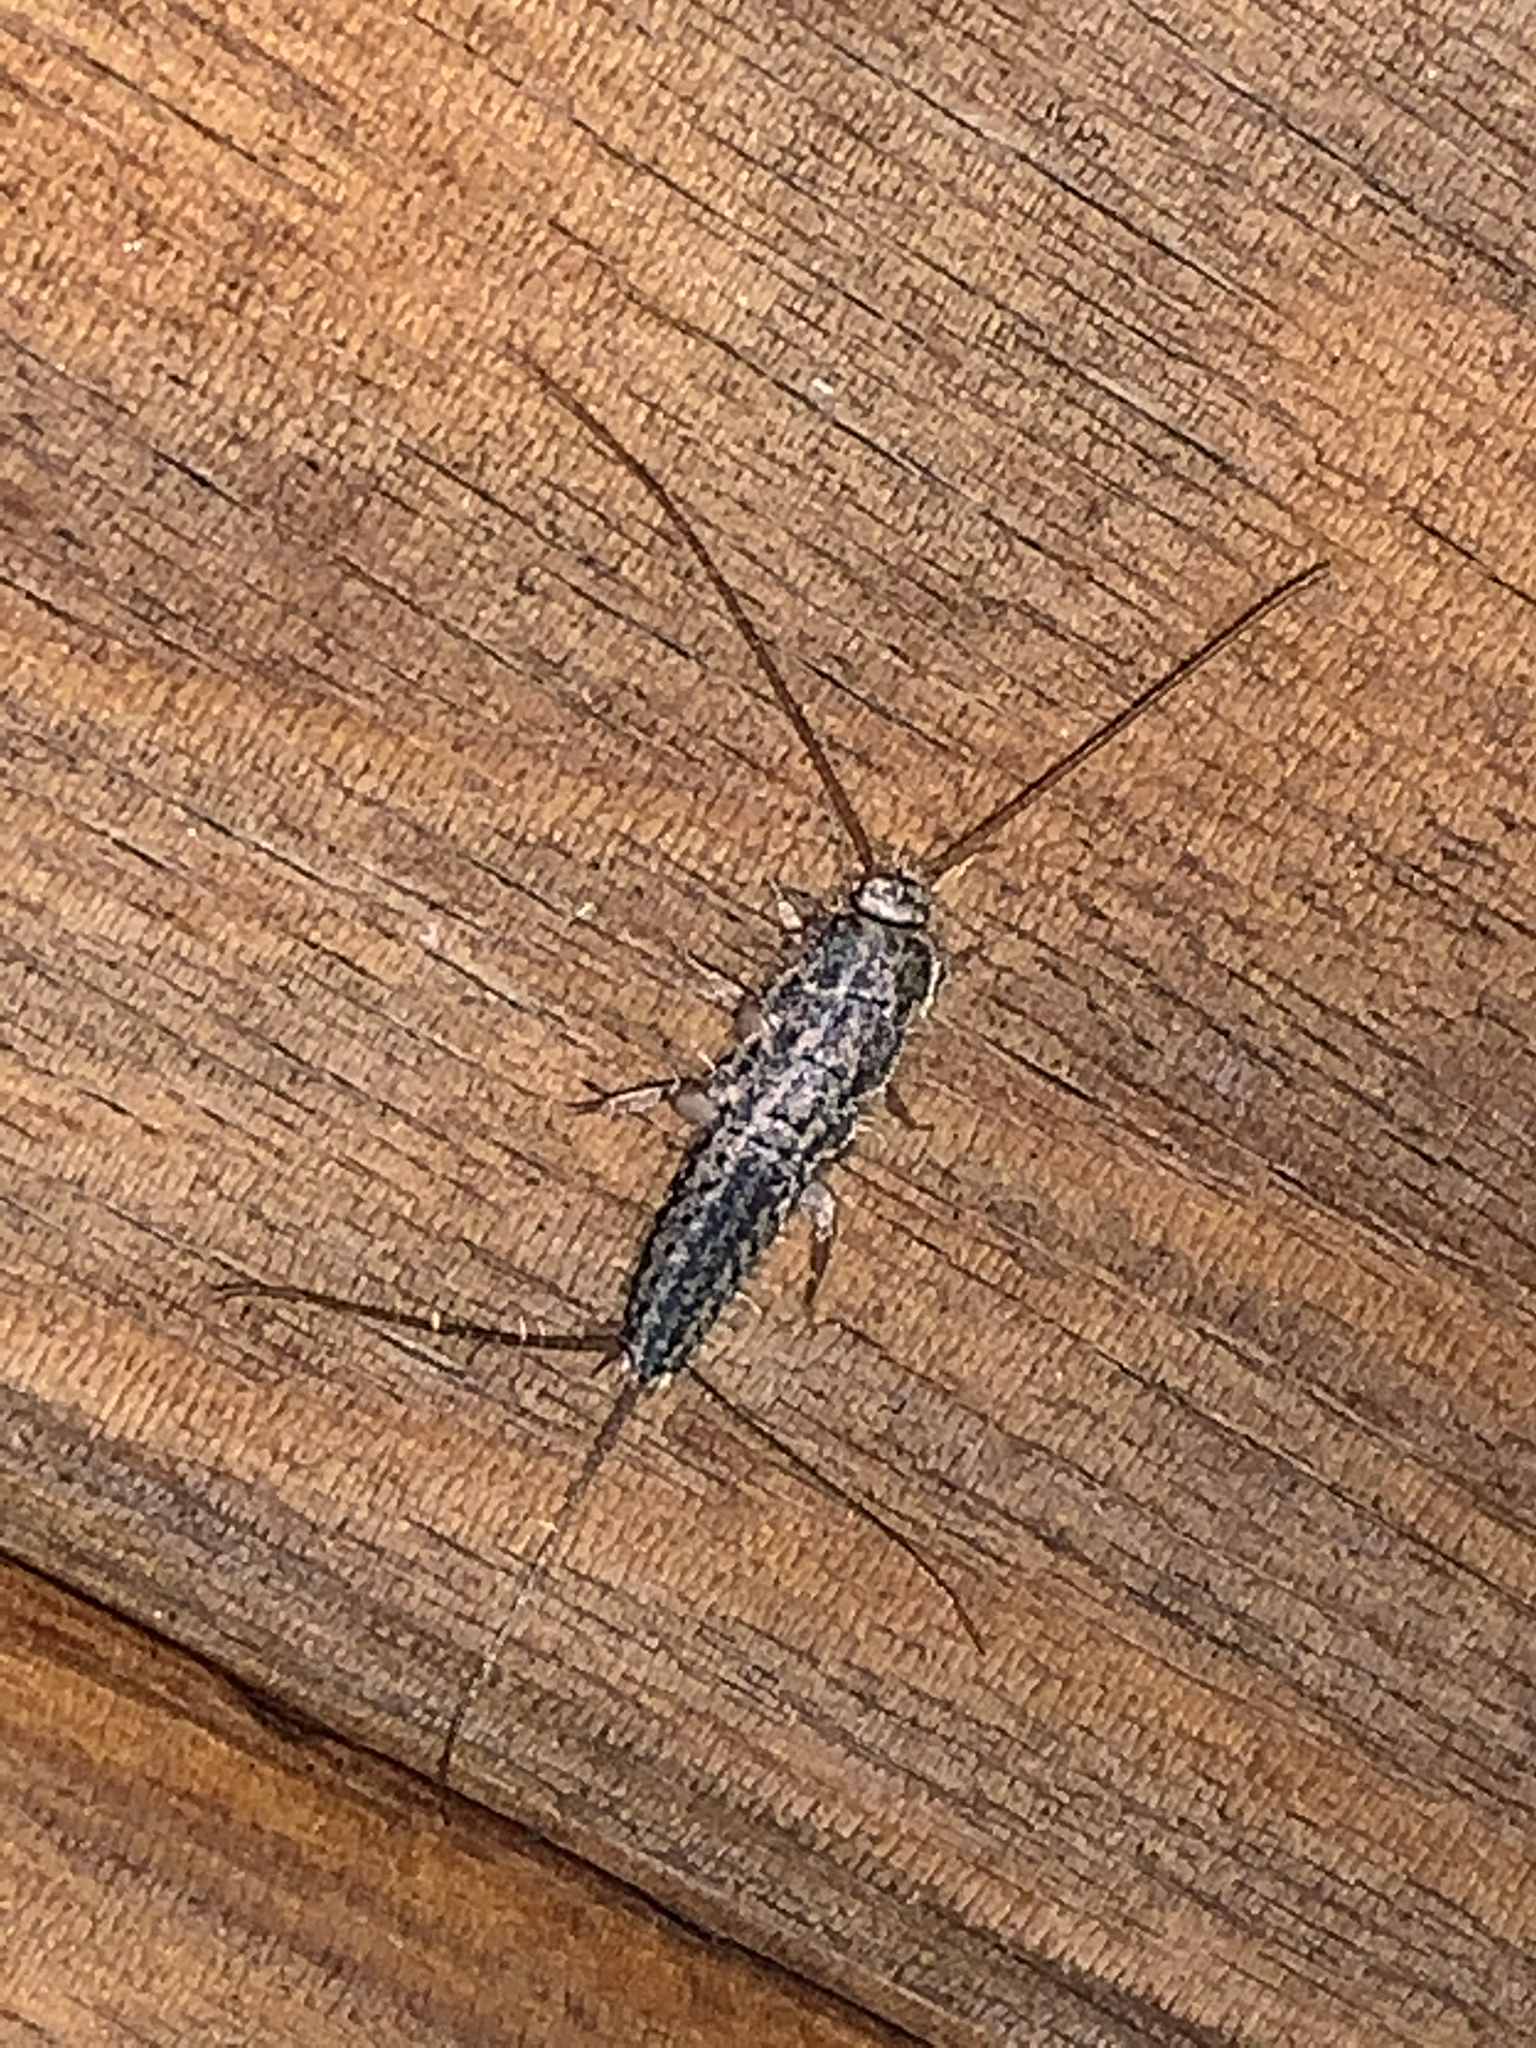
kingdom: Animalia
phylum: Arthropoda
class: Insecta
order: Zygentoma
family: Lepismatidae
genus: Ctenolepisma
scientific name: Ctenolepisma lineata
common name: Four-lined silverfish
